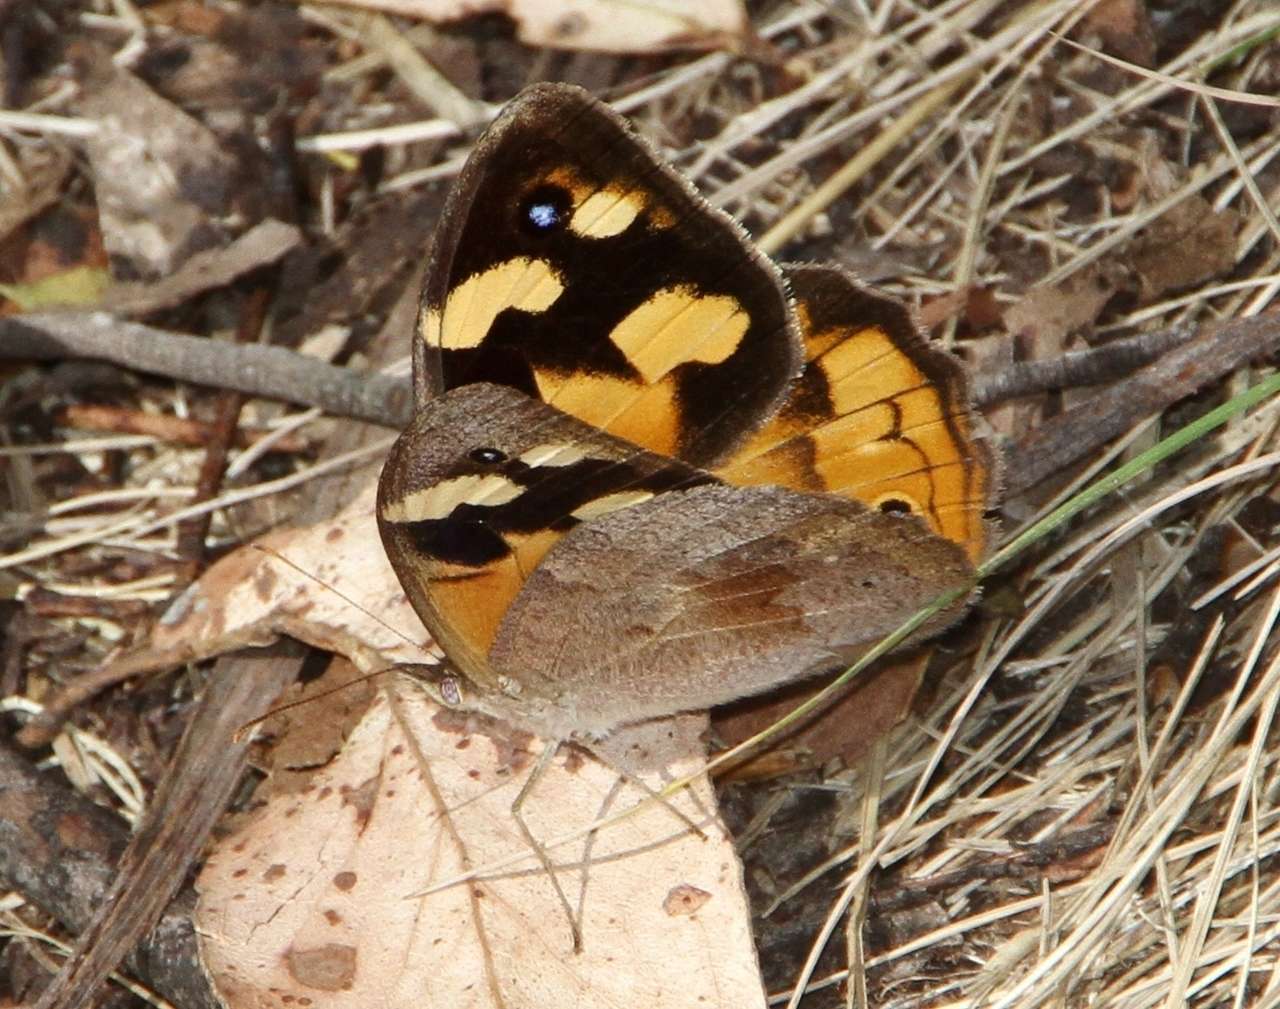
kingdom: Animalia
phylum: Arthropoda
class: Insecta
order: Lepidoptera
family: Nymphalidae
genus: Heteronympha
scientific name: Heteronympha merope
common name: Common brown
